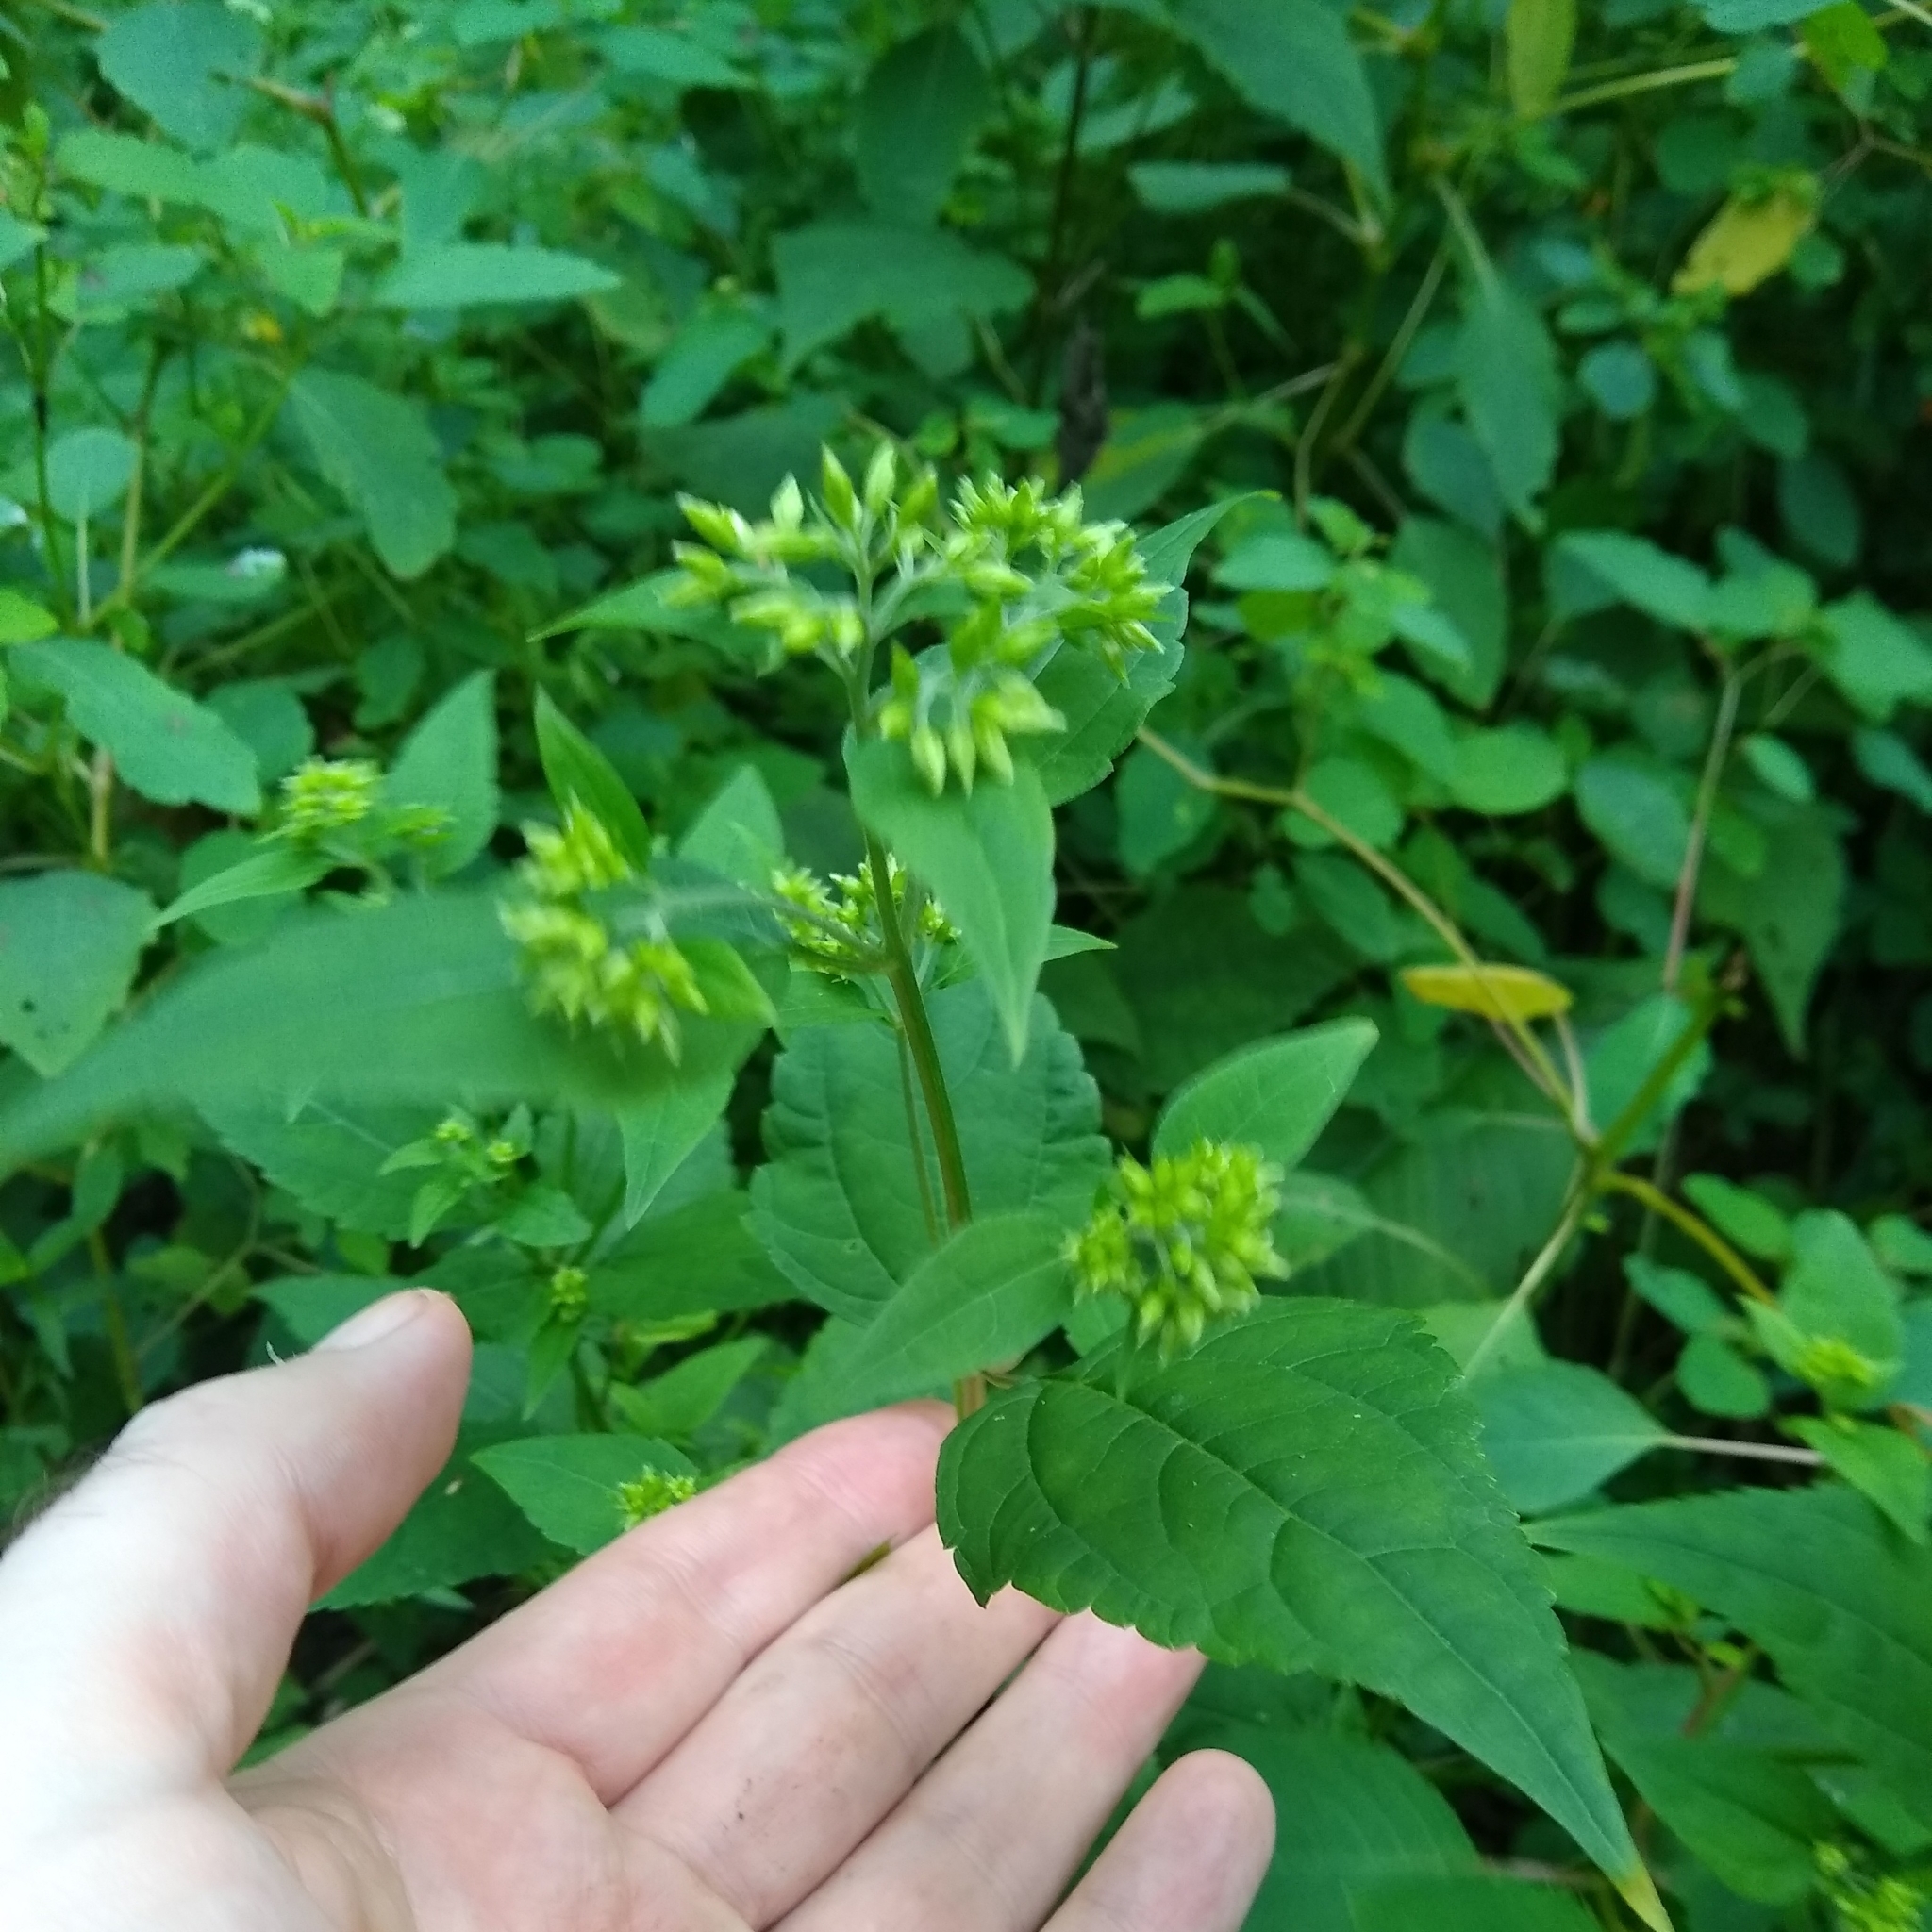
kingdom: Plantae
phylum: Tracheophyta
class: Magnoliopsida
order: Asterales
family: Asteraceae
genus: Ageratina
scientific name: Ageratina altissima
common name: White snakeroot
